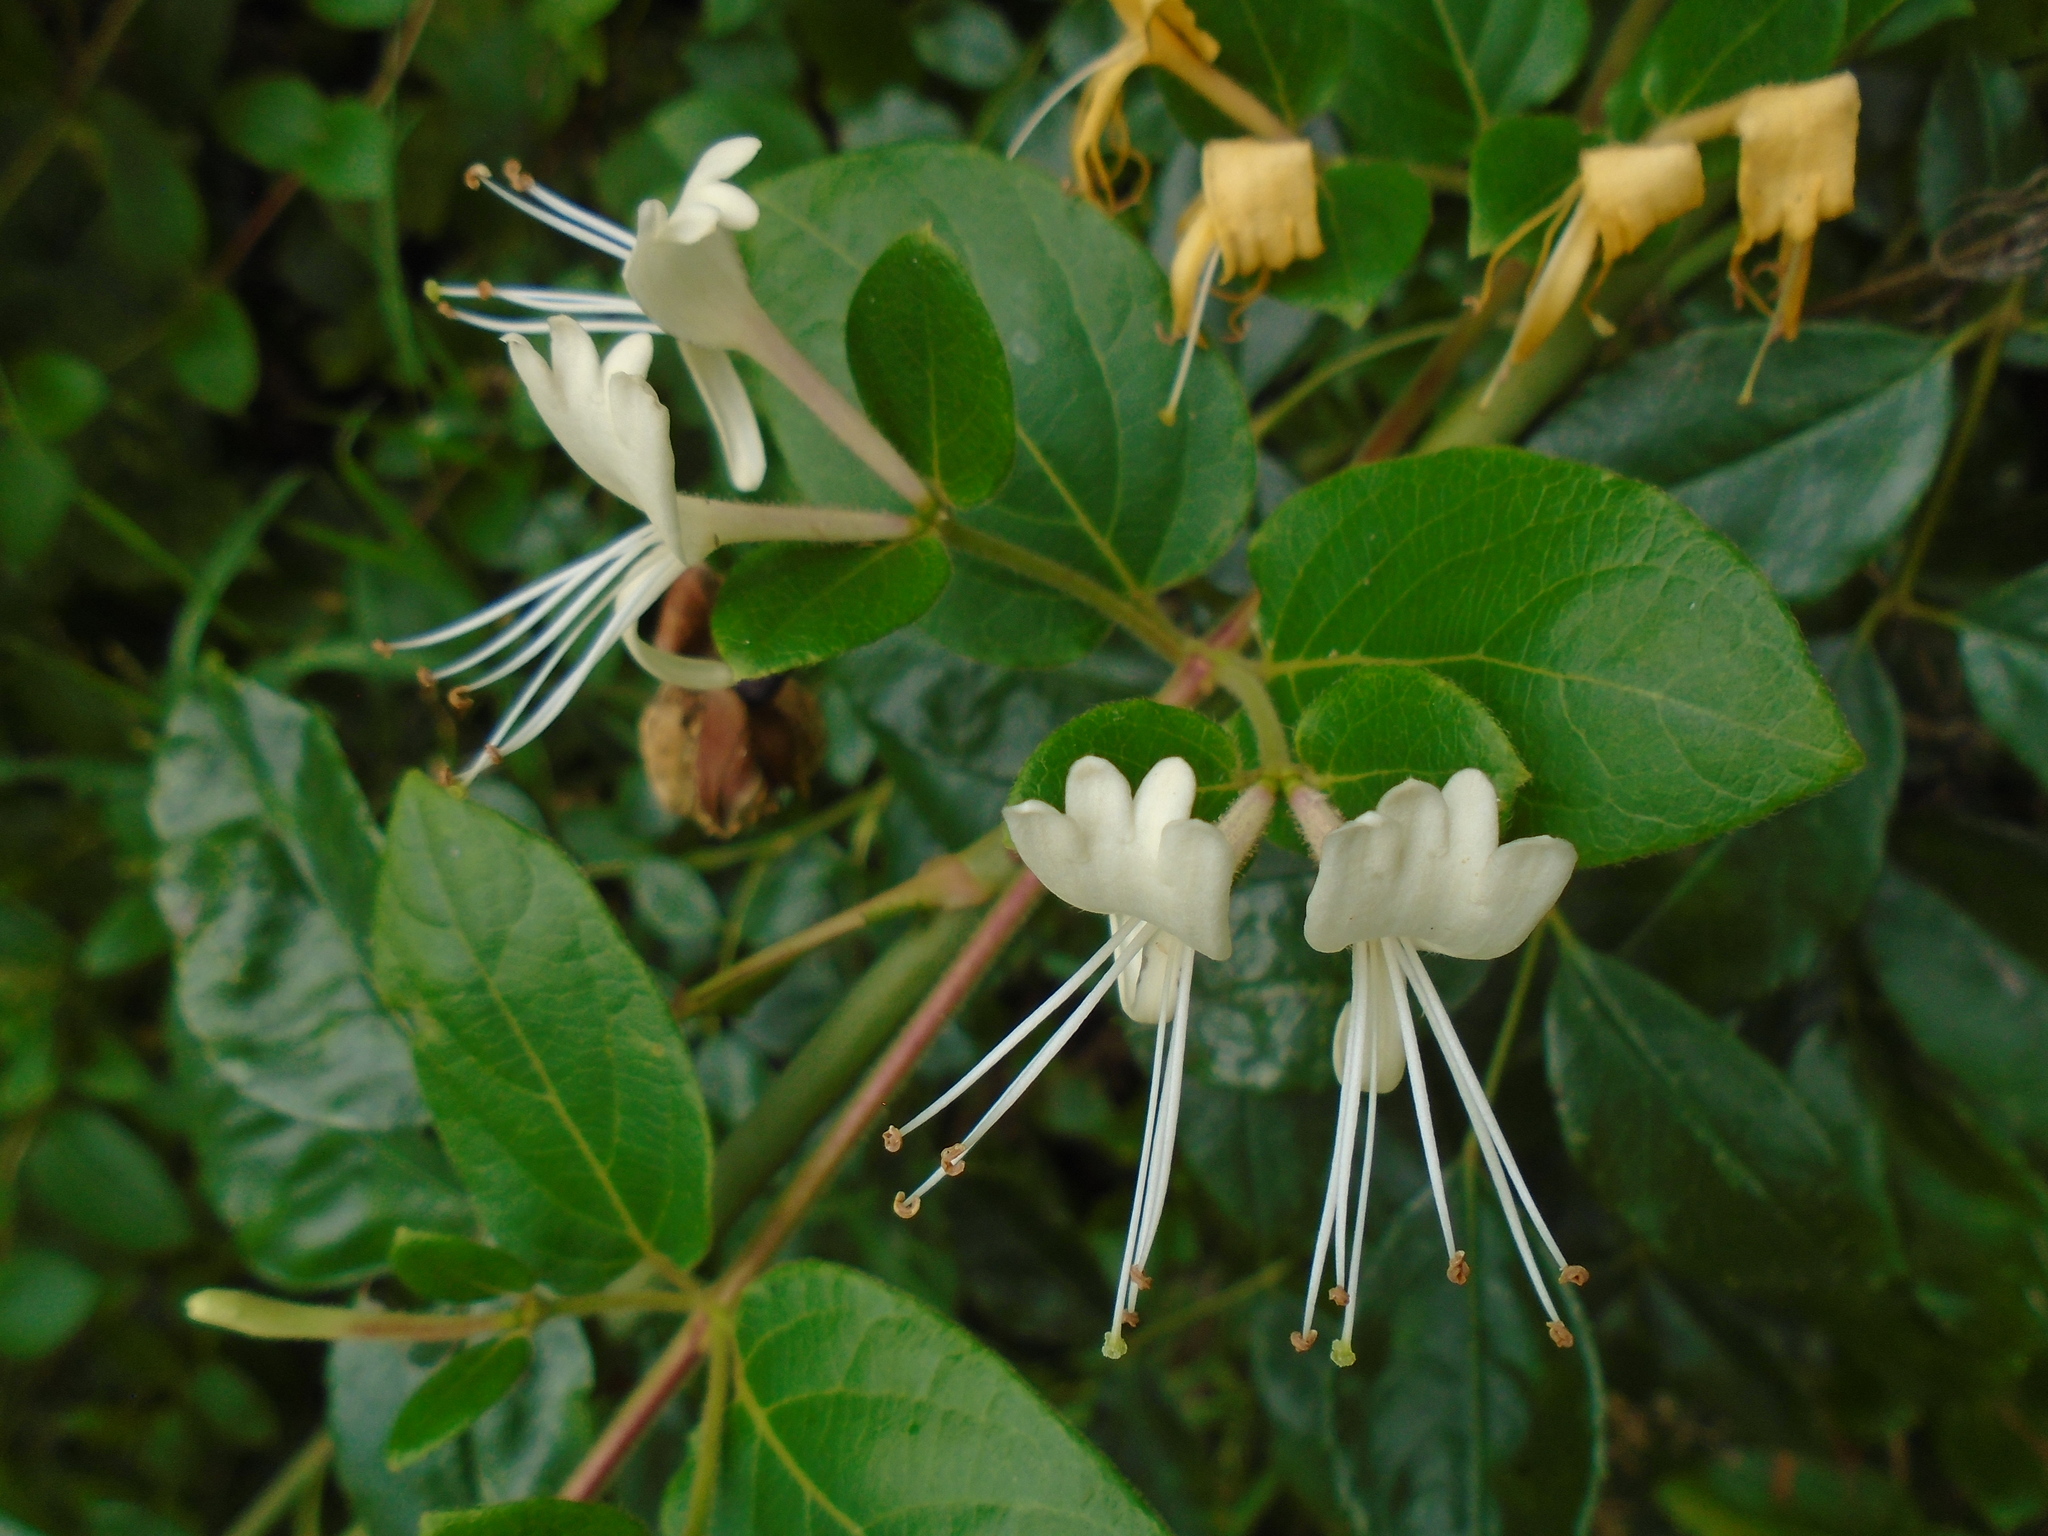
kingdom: Plantae
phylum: Tracheophyta
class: Magnoliopsida
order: Dipsacales
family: Caprifoliaceae
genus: Lonicera
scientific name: Lonicera japonica
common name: Japanese honeysuckle
